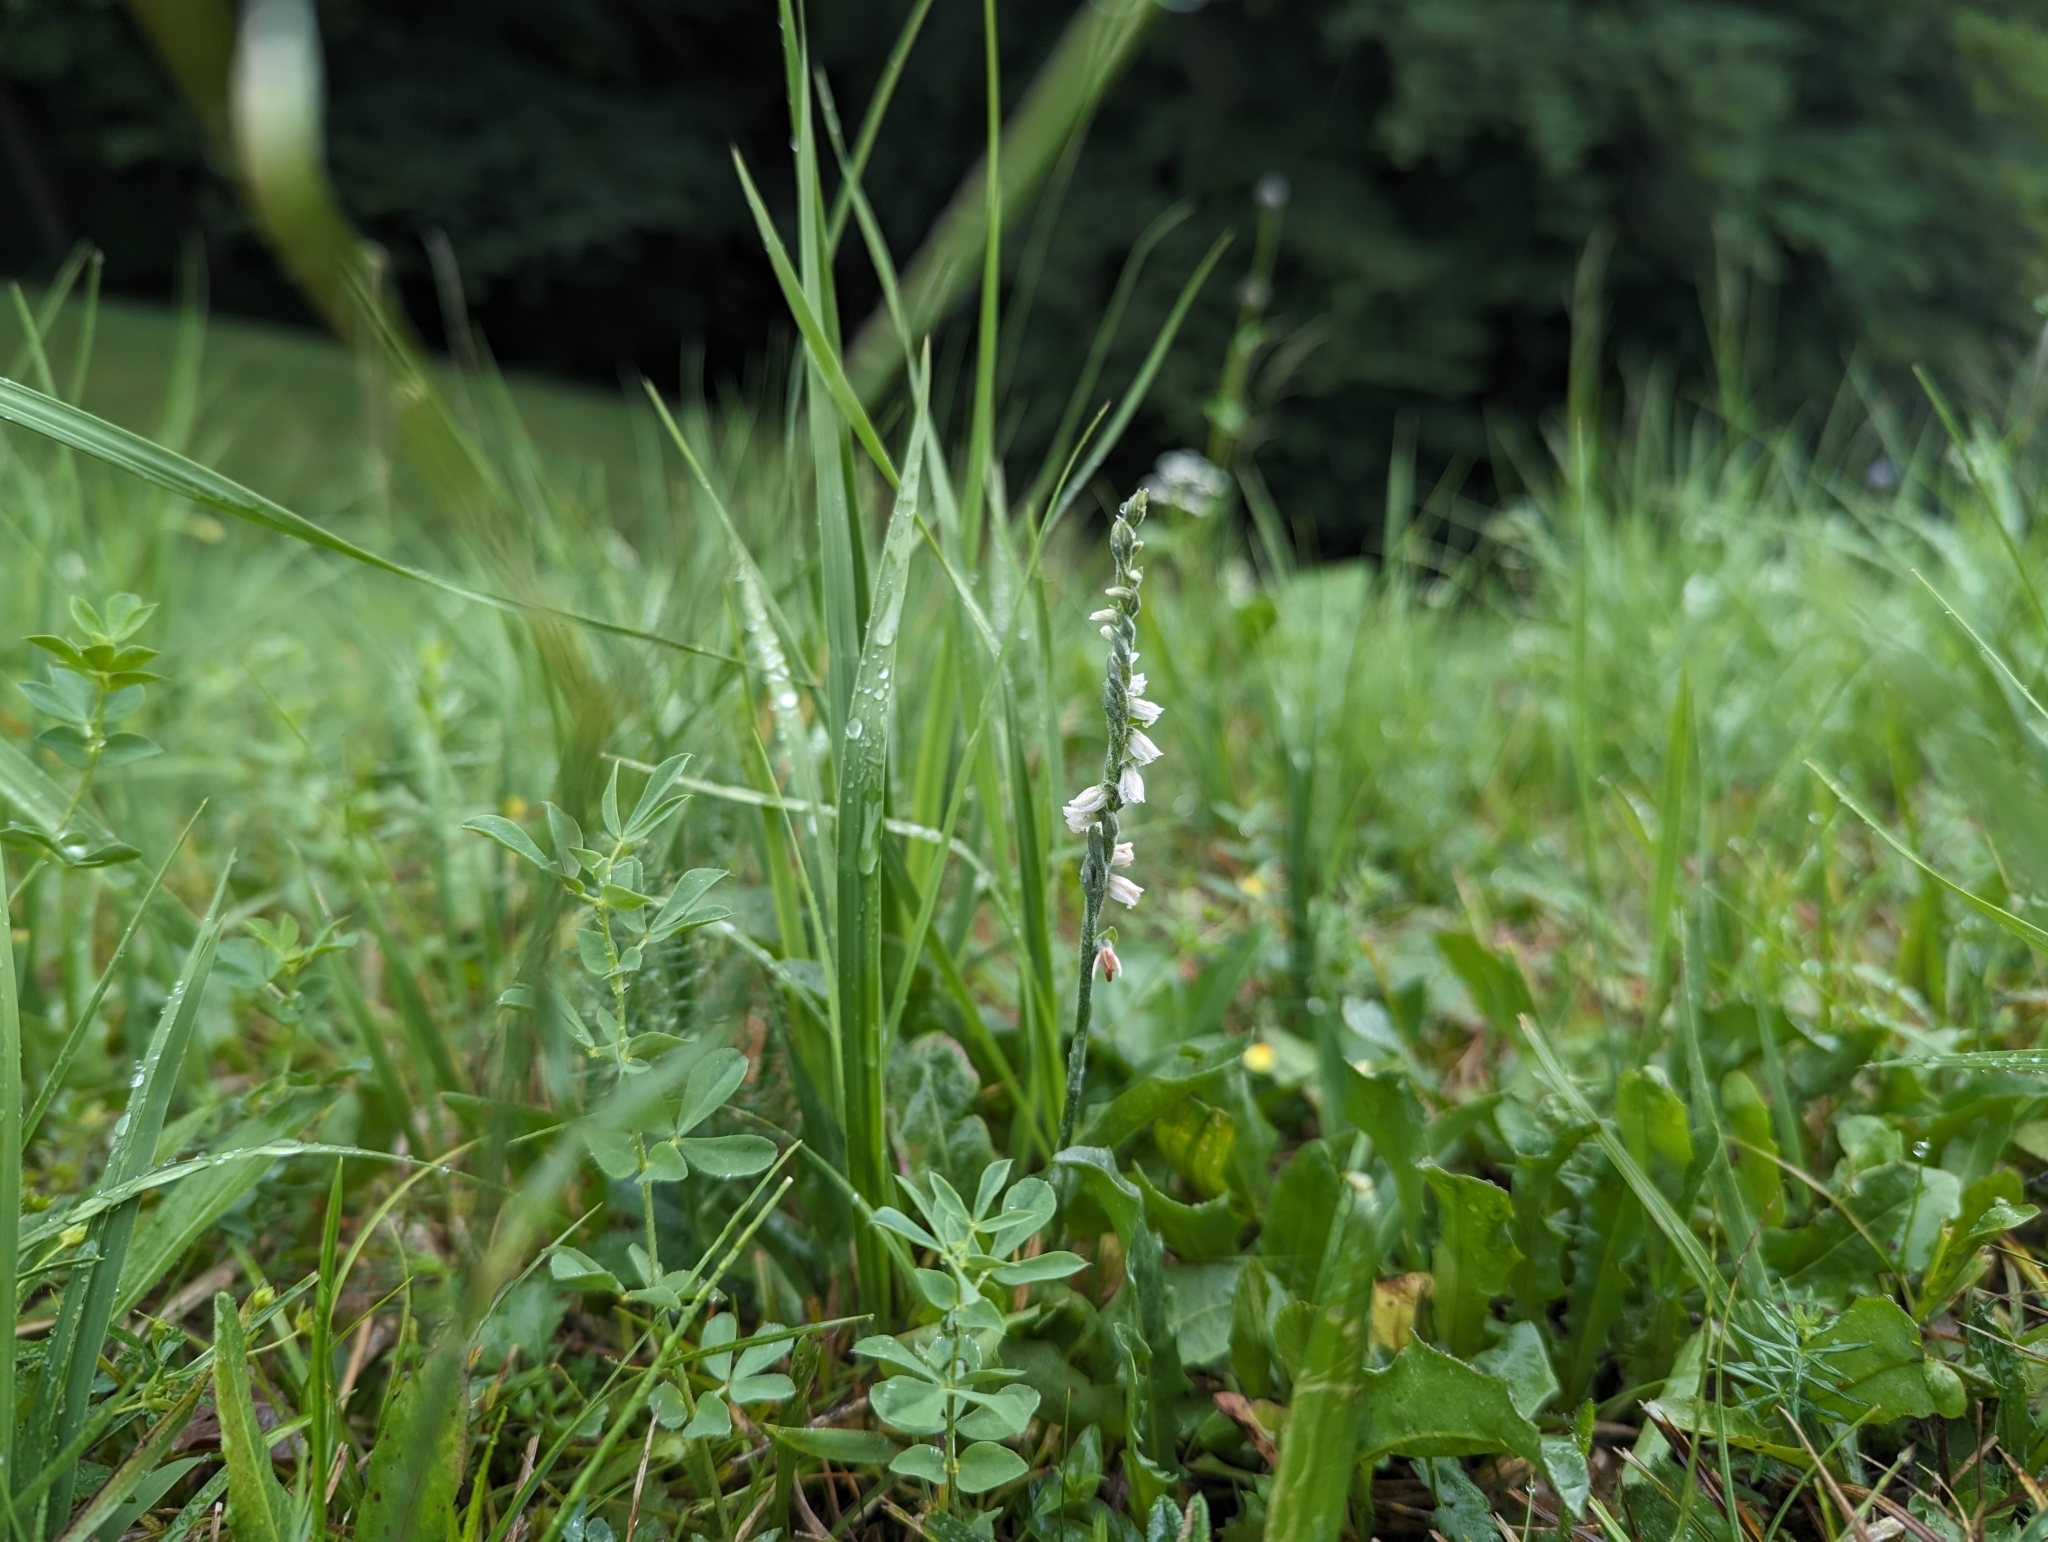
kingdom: Plantae
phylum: Tracheophyta
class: Liliopsida
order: Asparagales
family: Orchidaceae
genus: Spiranthes
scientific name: Spiranthes spiralis
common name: Autumn lady's-tresses
